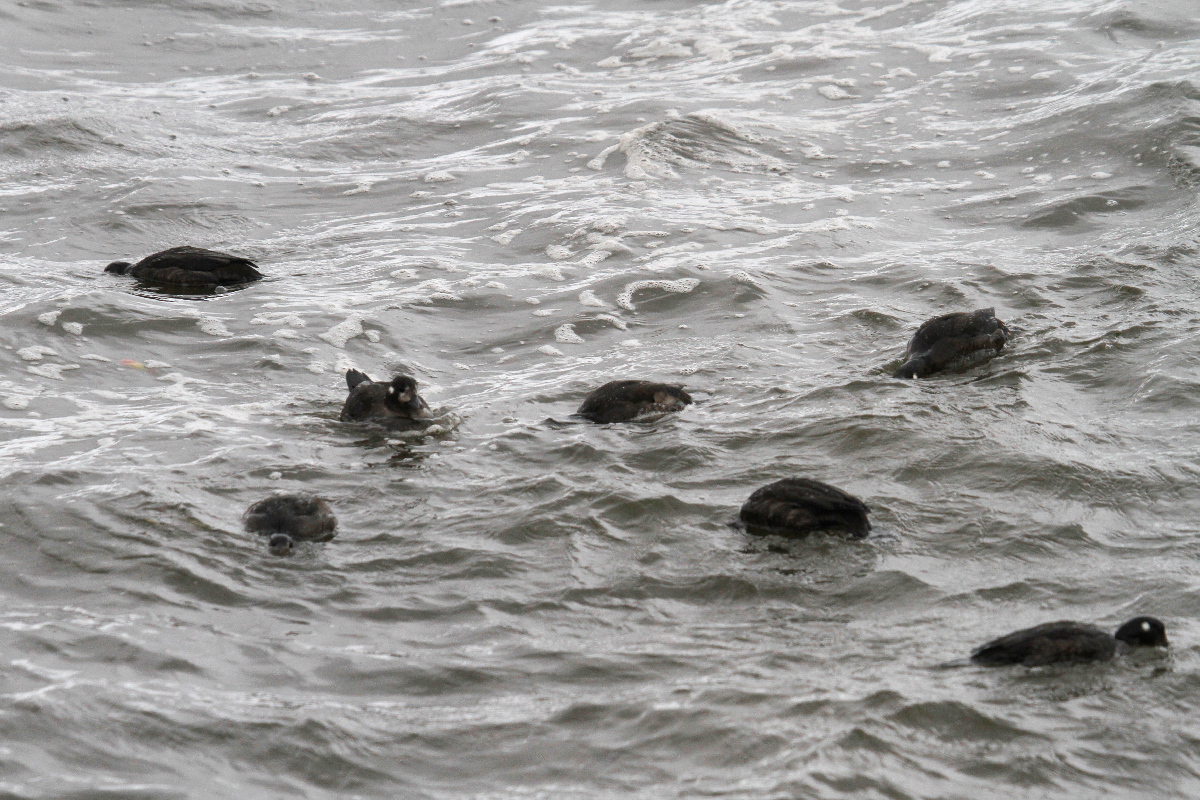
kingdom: Animalia
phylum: Chordata
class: Aves
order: Anseriformes
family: Anatidae
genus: Histrionicus
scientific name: Histrionicus histrionicus
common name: Harlequin duck
